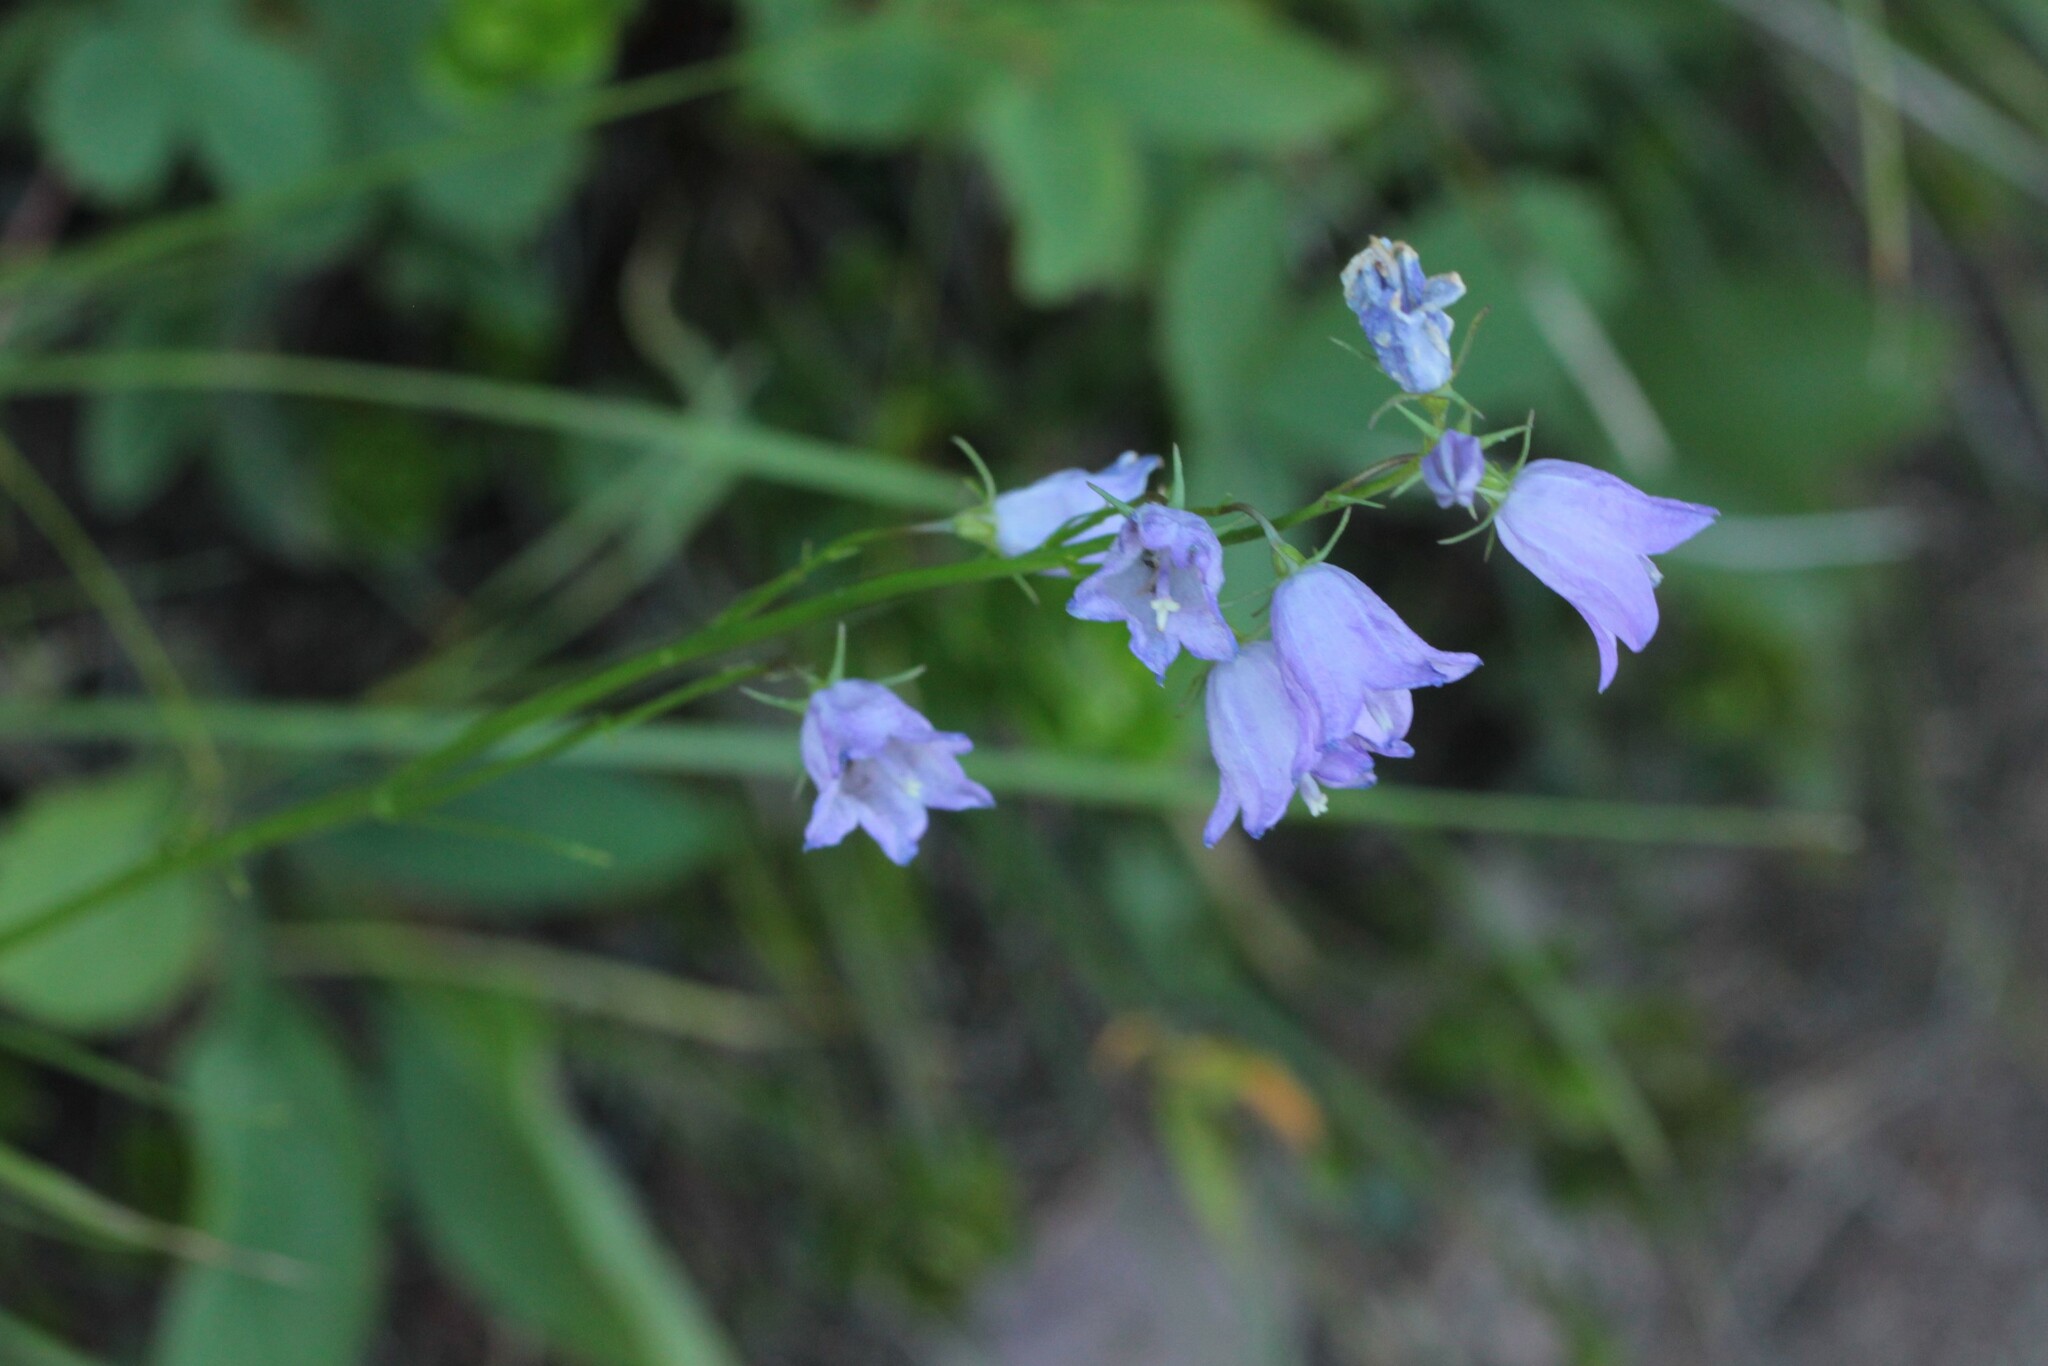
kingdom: Plantae
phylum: Tracheophyta
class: Magnoliopsida
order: Asterales
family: Campanulaceae
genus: Campanula
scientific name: Campanula petiolata
